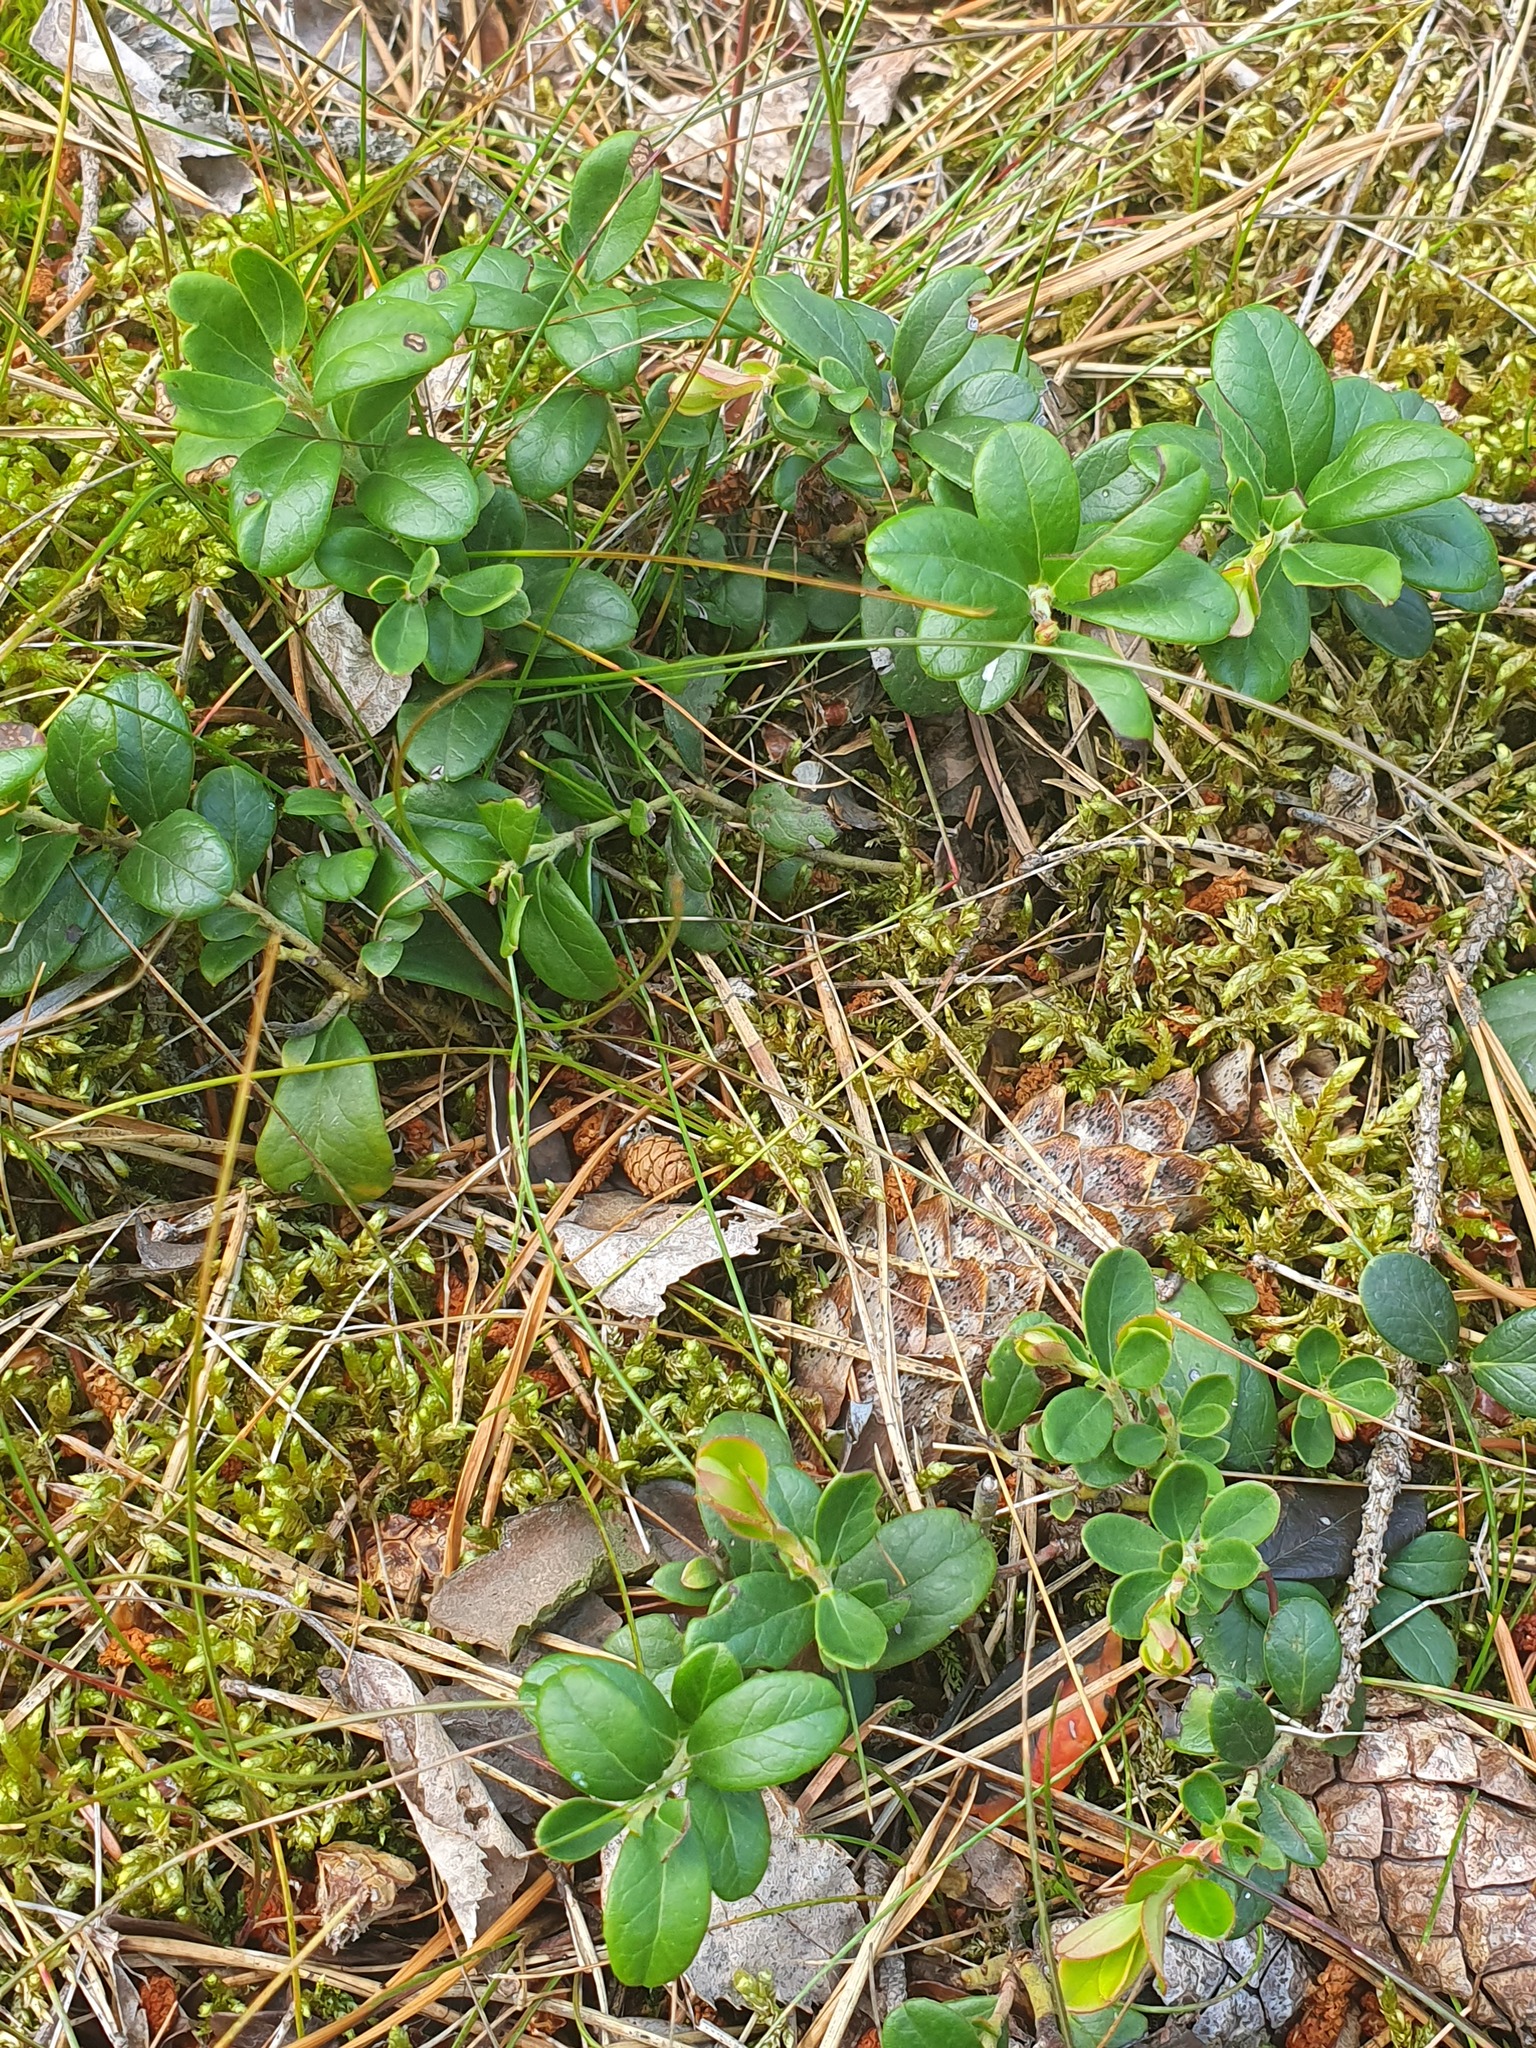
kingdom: Plantae
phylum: Tracheophyta
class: Magnoliopsida
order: Ericales
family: Ericaceae
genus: Vaccinium
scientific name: Vaccinium vitis-idaea
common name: Cowberry
